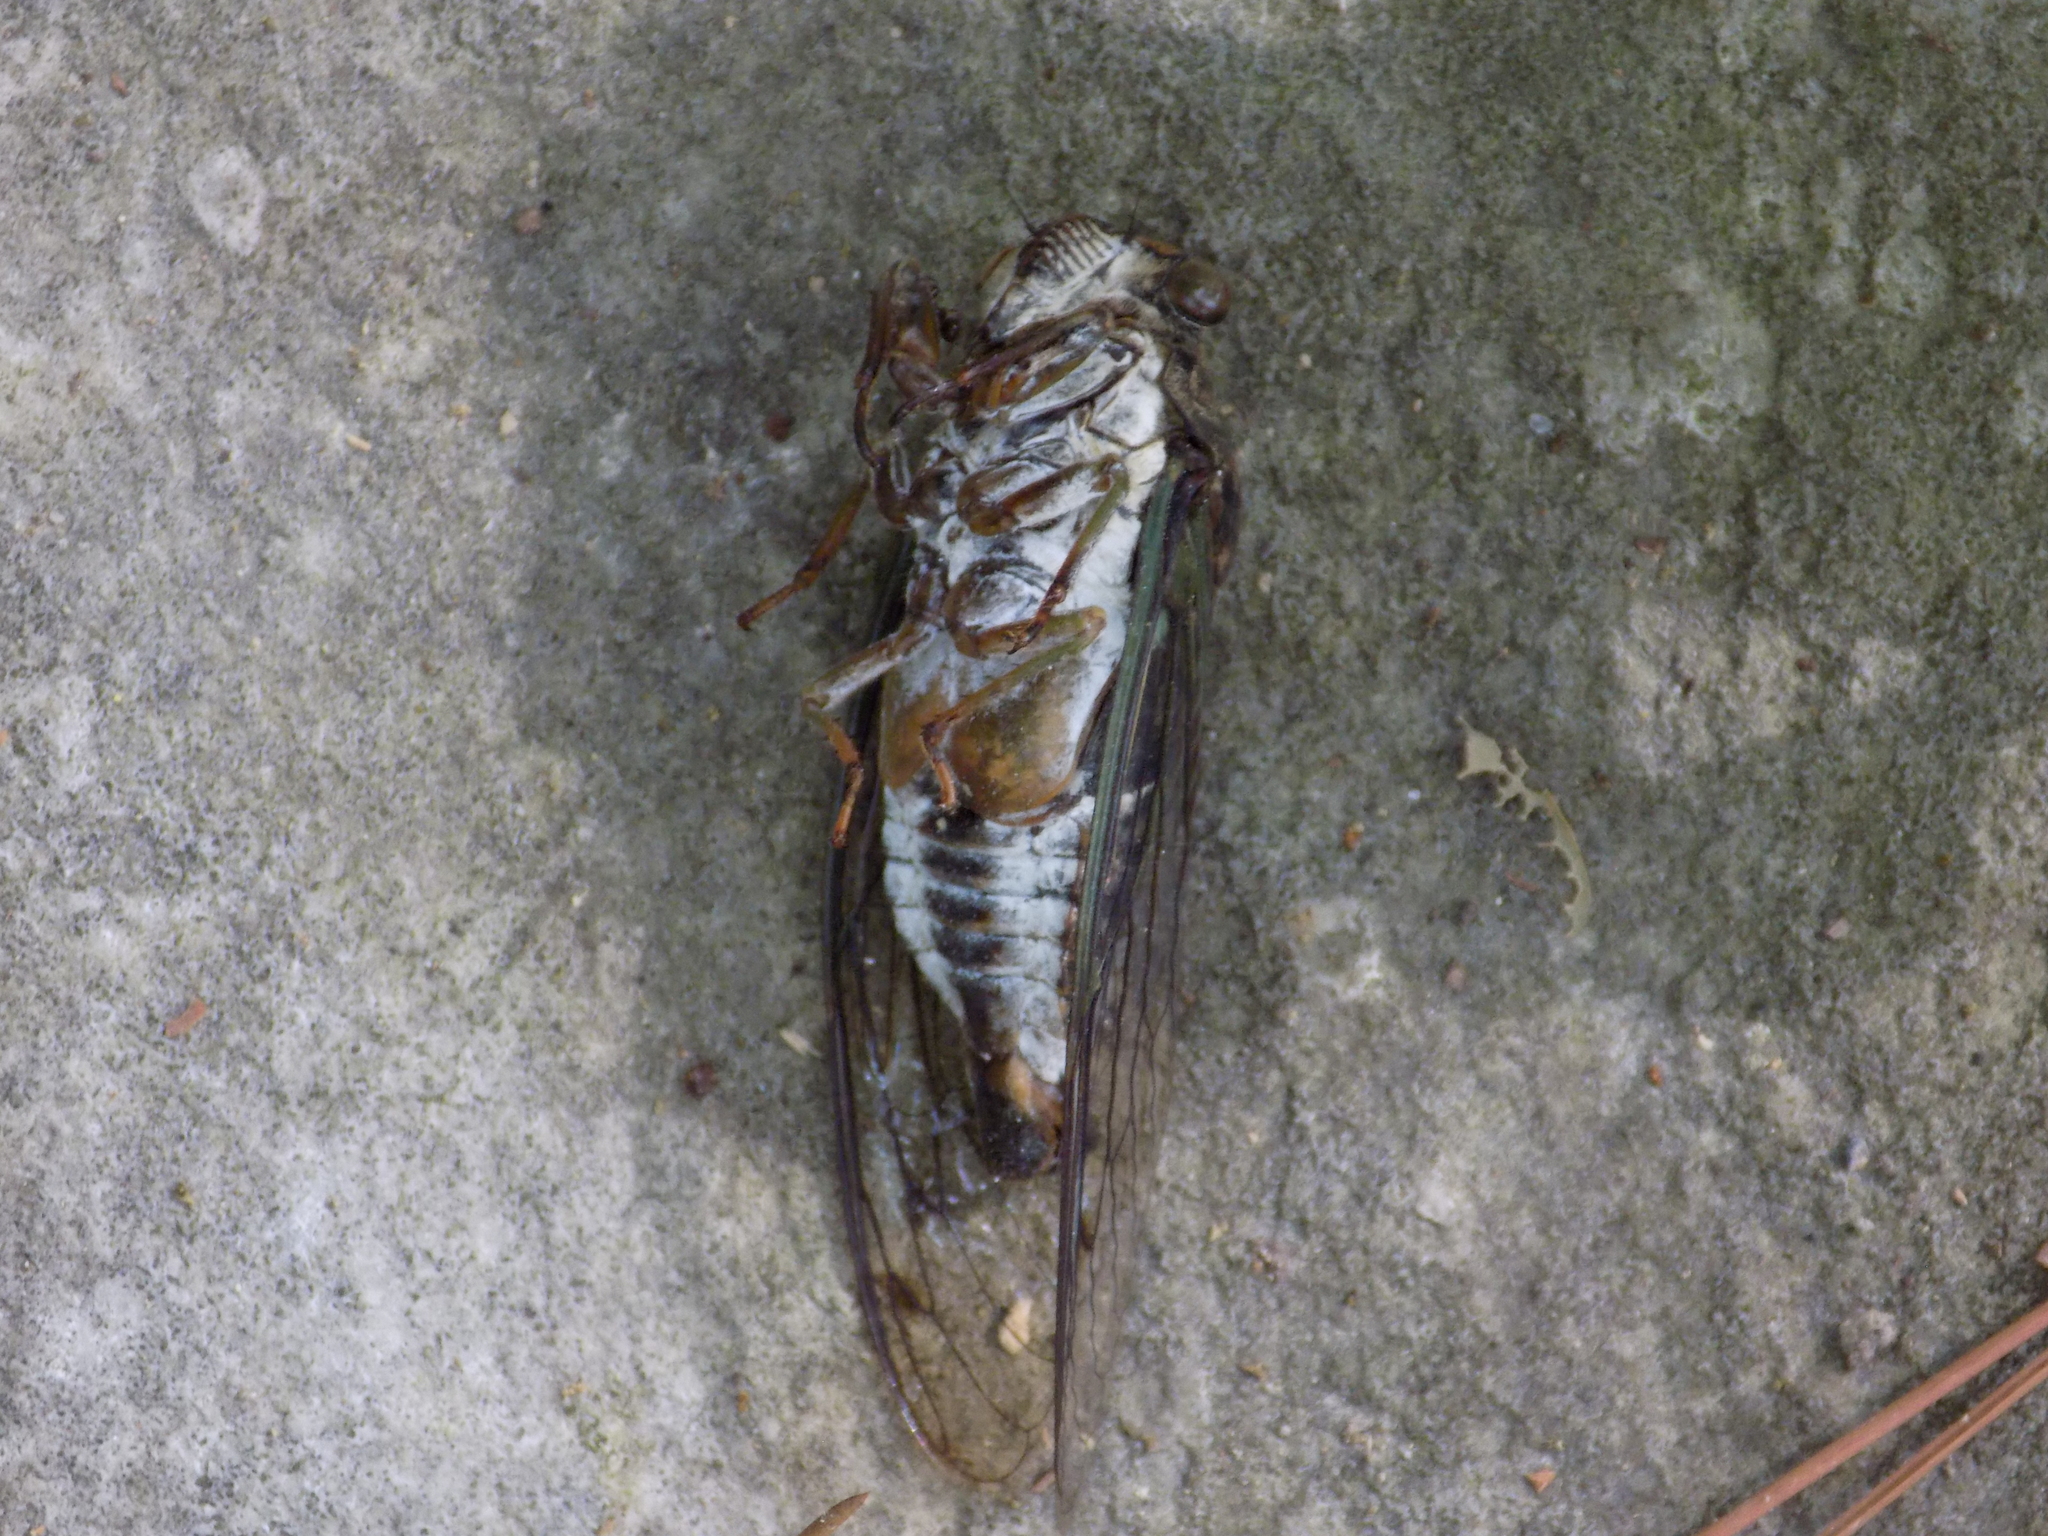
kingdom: Animalia
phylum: Arthropoda
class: Insecta
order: Hemiptera
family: Cicadidae
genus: Neotibicen
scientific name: Neotibicen pruinosus
